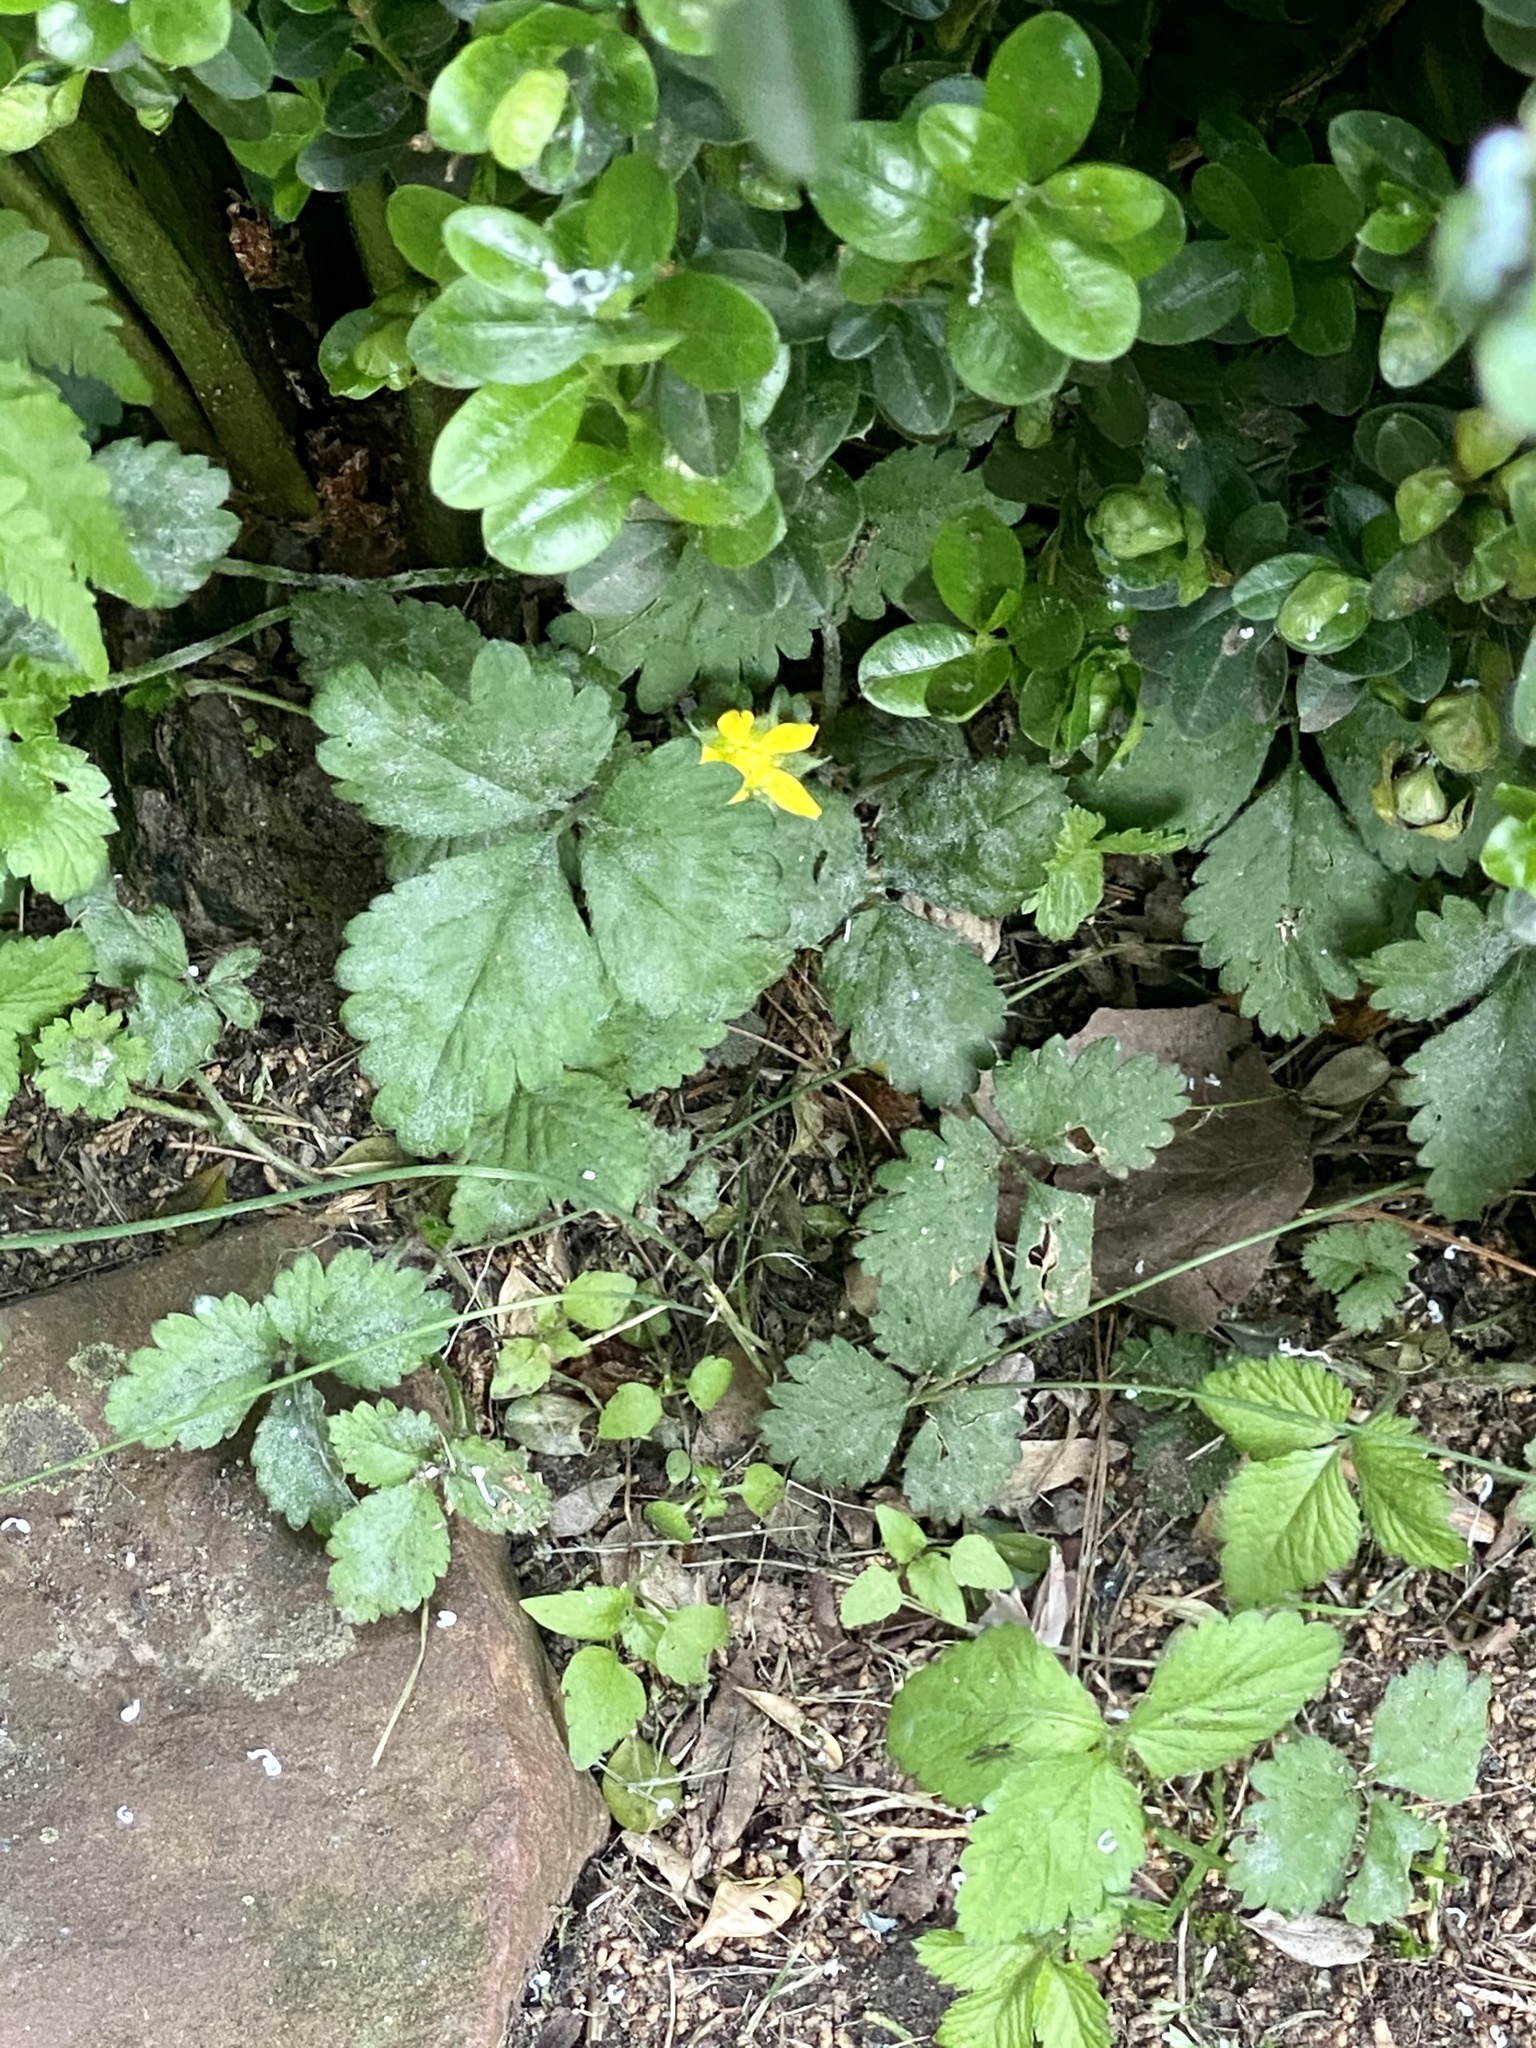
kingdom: Plantae
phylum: Tracheophyta
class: Magnoliopsida
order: Rosales
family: Rosaceae
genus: Potentilla
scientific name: Potentilla indica
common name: Yellow-flowered strawberry
